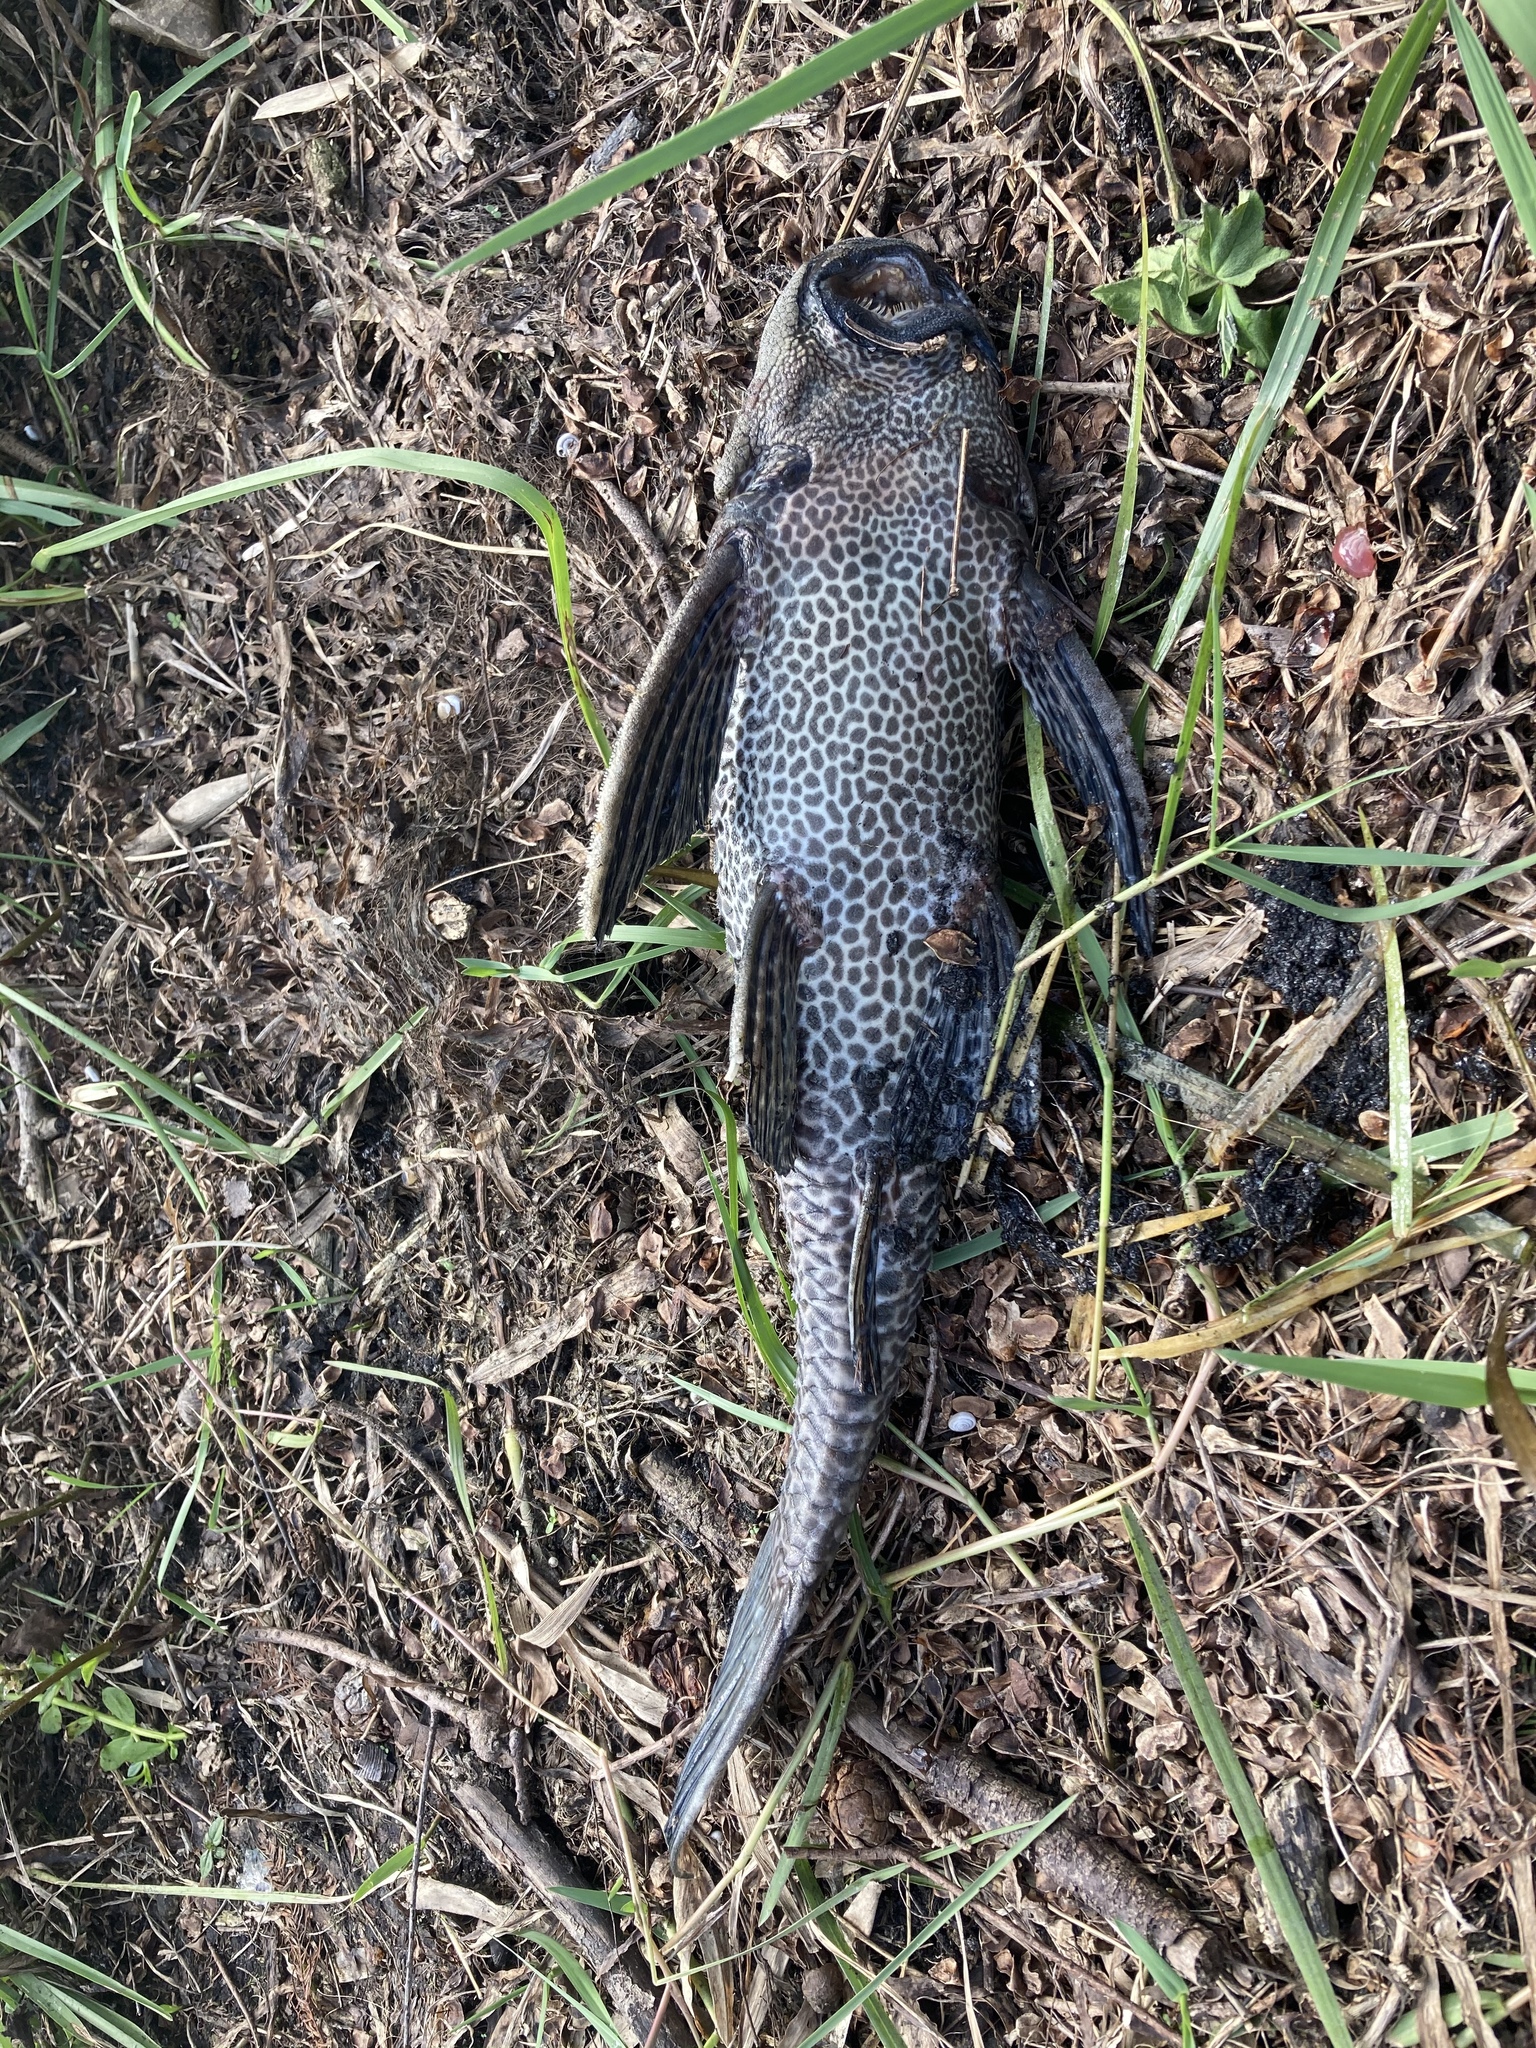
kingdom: Animalia
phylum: Chordata
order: Siluriformes
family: Loricariidae
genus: Pterygoplichthys
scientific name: Pterygoplichthys
